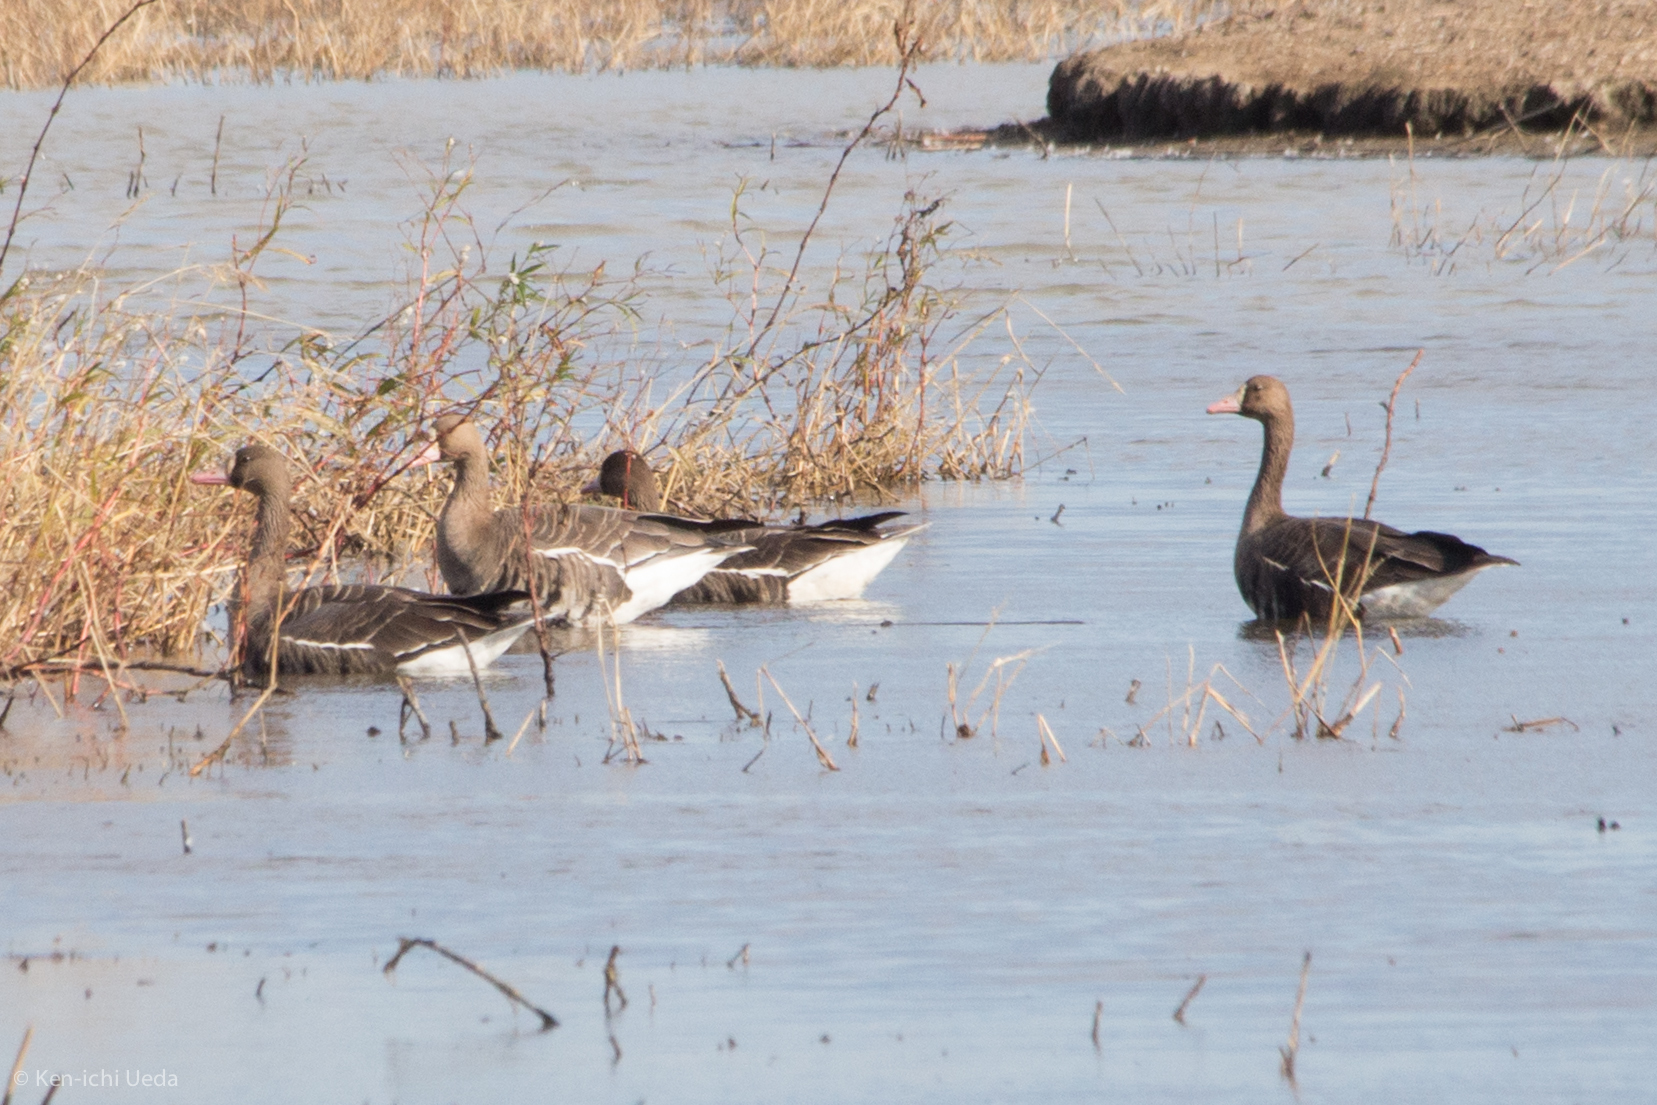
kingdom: Animalia
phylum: Chordata
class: Aves
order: Anseriformes
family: Anatidae
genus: Anser
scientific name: Anser albifrons
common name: Greater white-fronted goose
